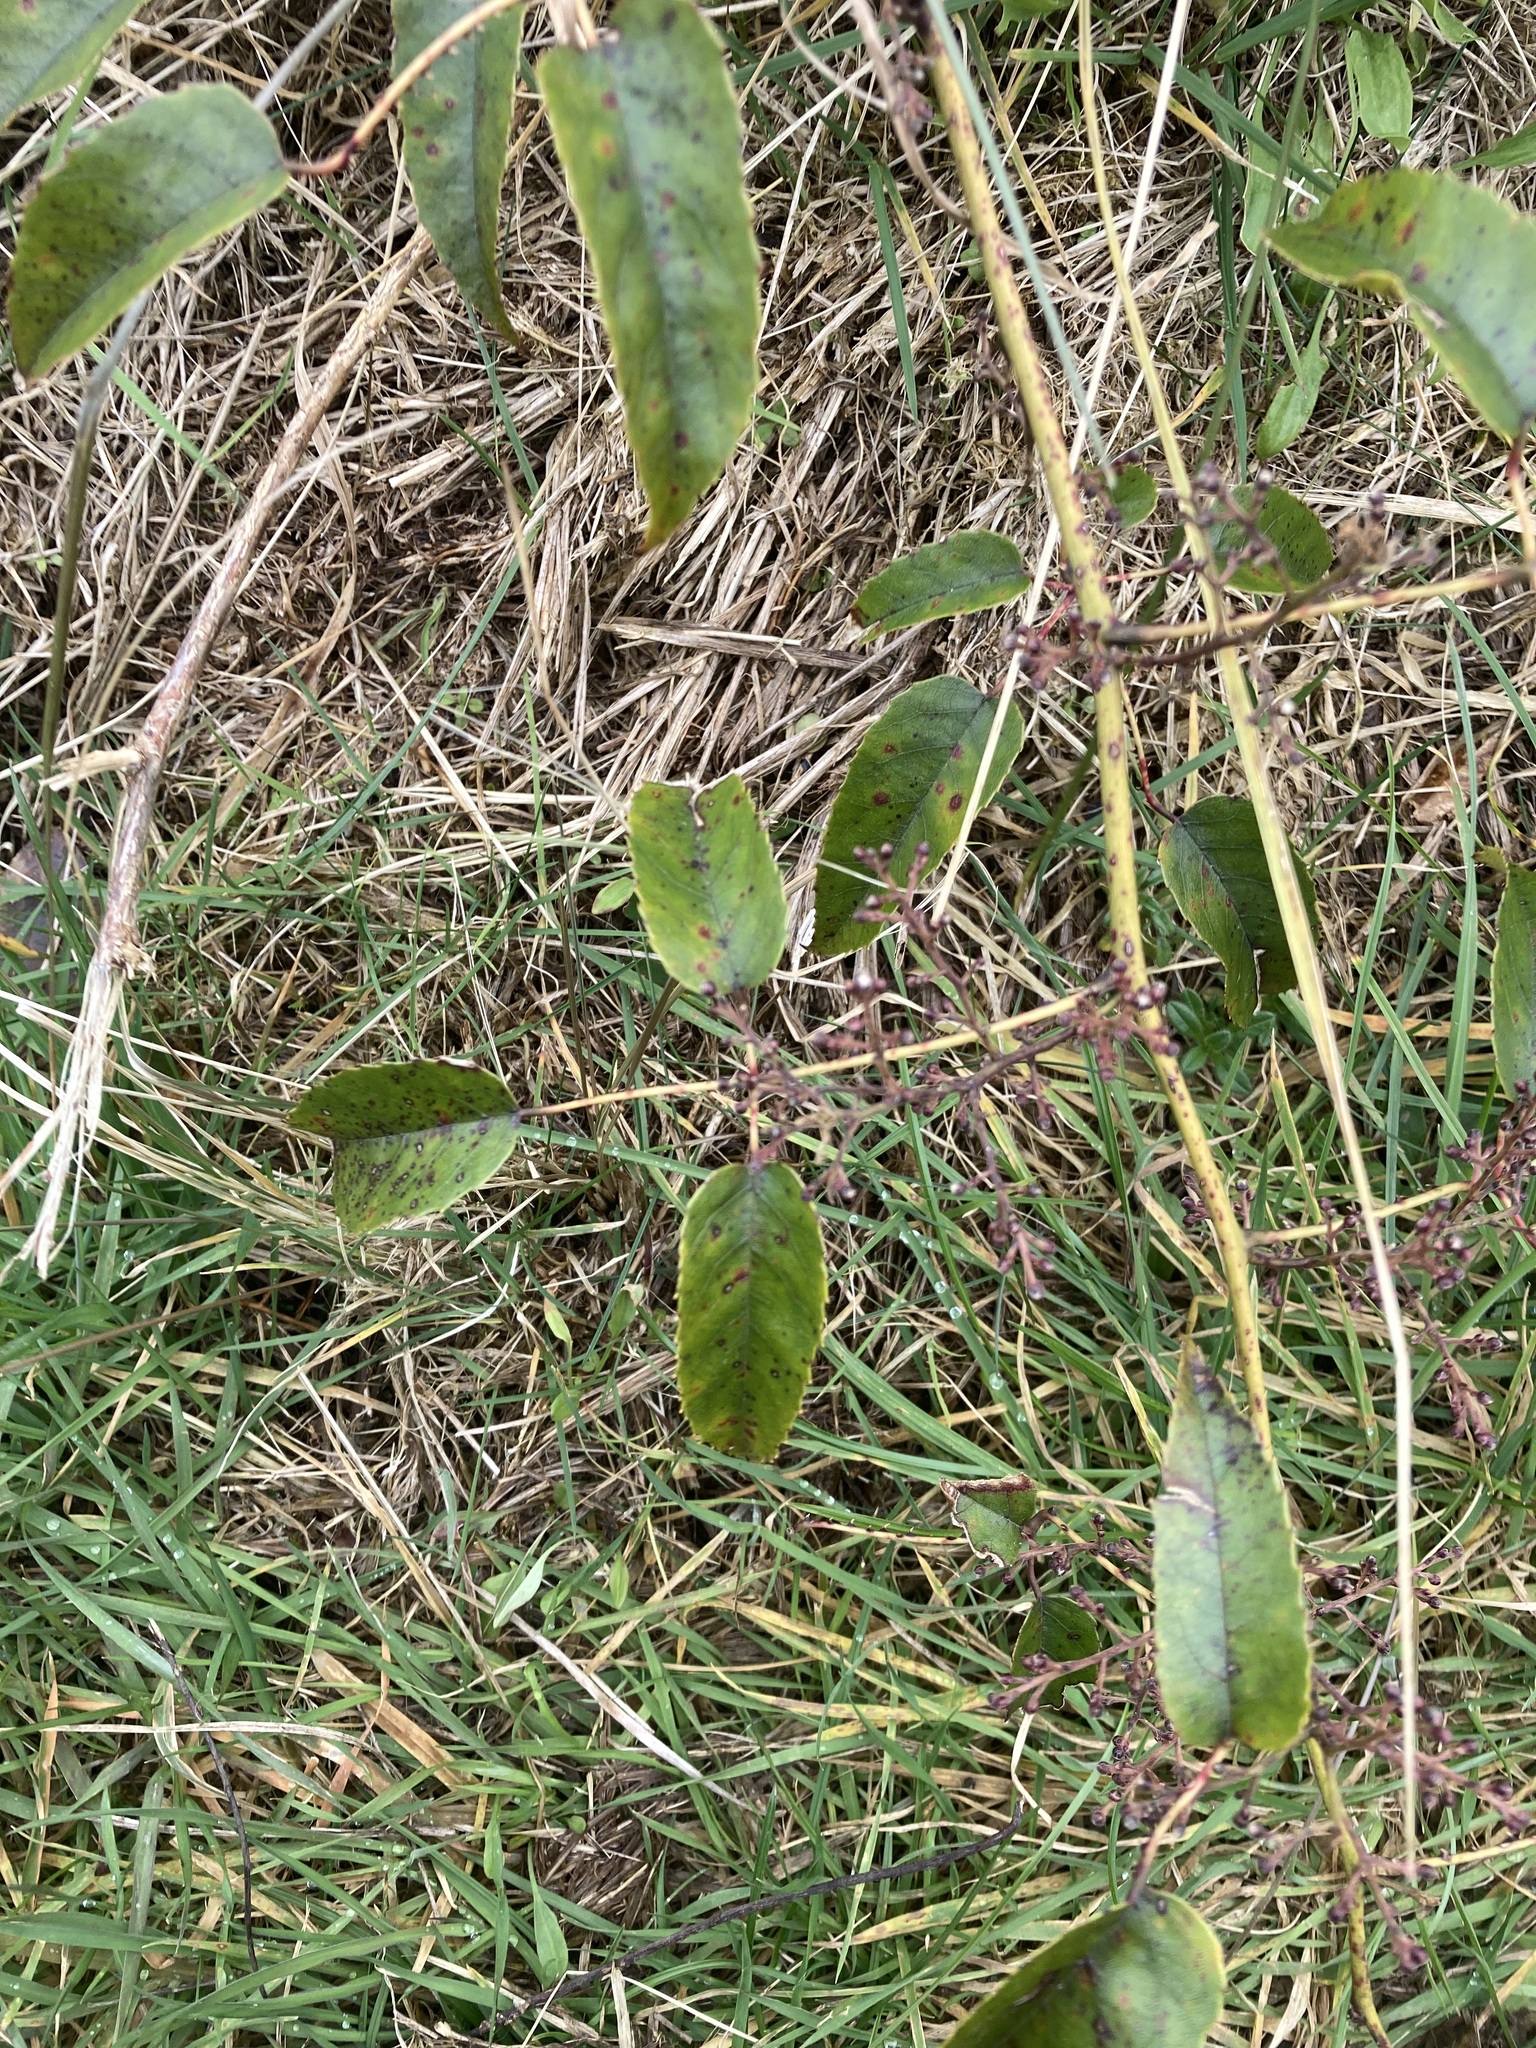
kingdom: Plantae
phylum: Tracheophyta
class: Magnoliopsida
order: Rosales
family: Rosaceae
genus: Rubus
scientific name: Rubus cissoides
